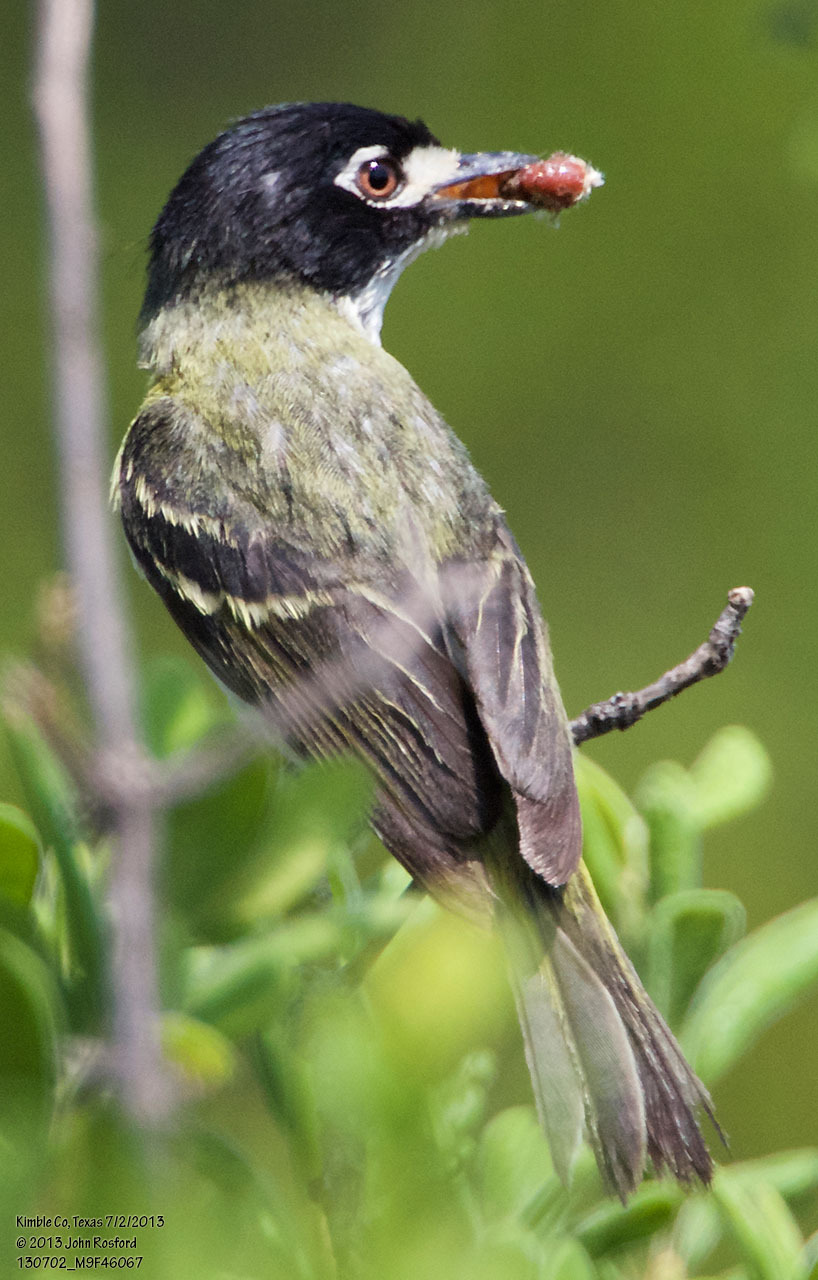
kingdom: Animalia
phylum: Chordata
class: Aves
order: Passeriformes
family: Vireonidae
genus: Vireo
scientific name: Vireo atricapilla
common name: Black-capped vireo
